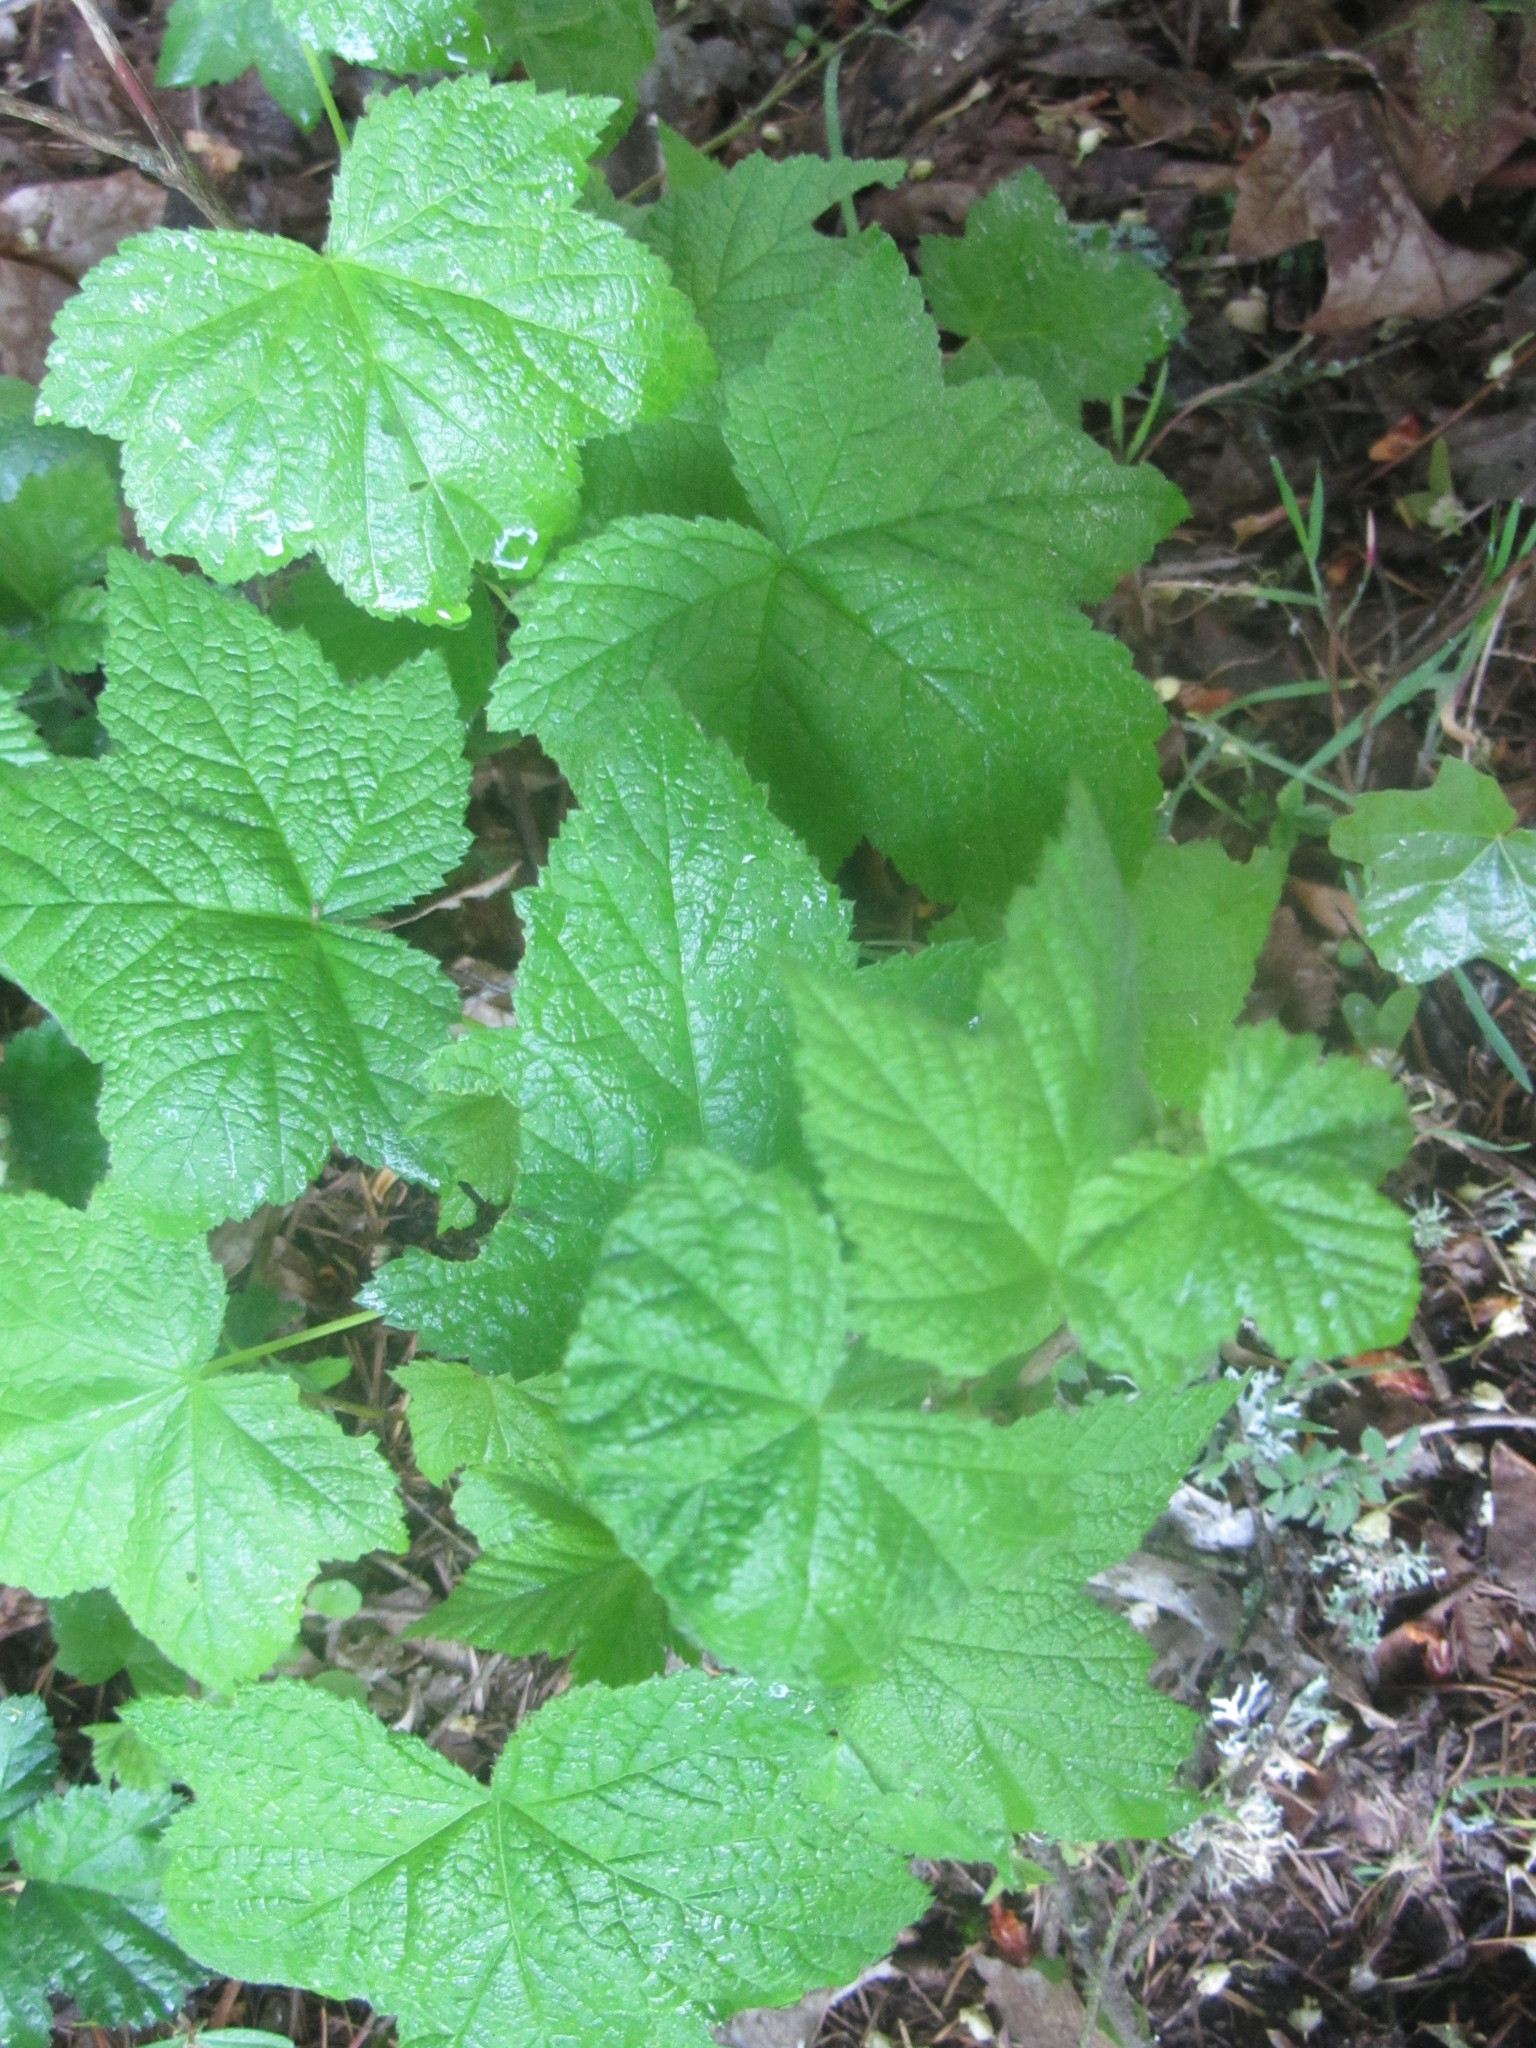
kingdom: Plantae
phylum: Tracheophyta
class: Magnoliopsida
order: Rosales
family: Rosaceae
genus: Rubus
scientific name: Rubus parviflorus
